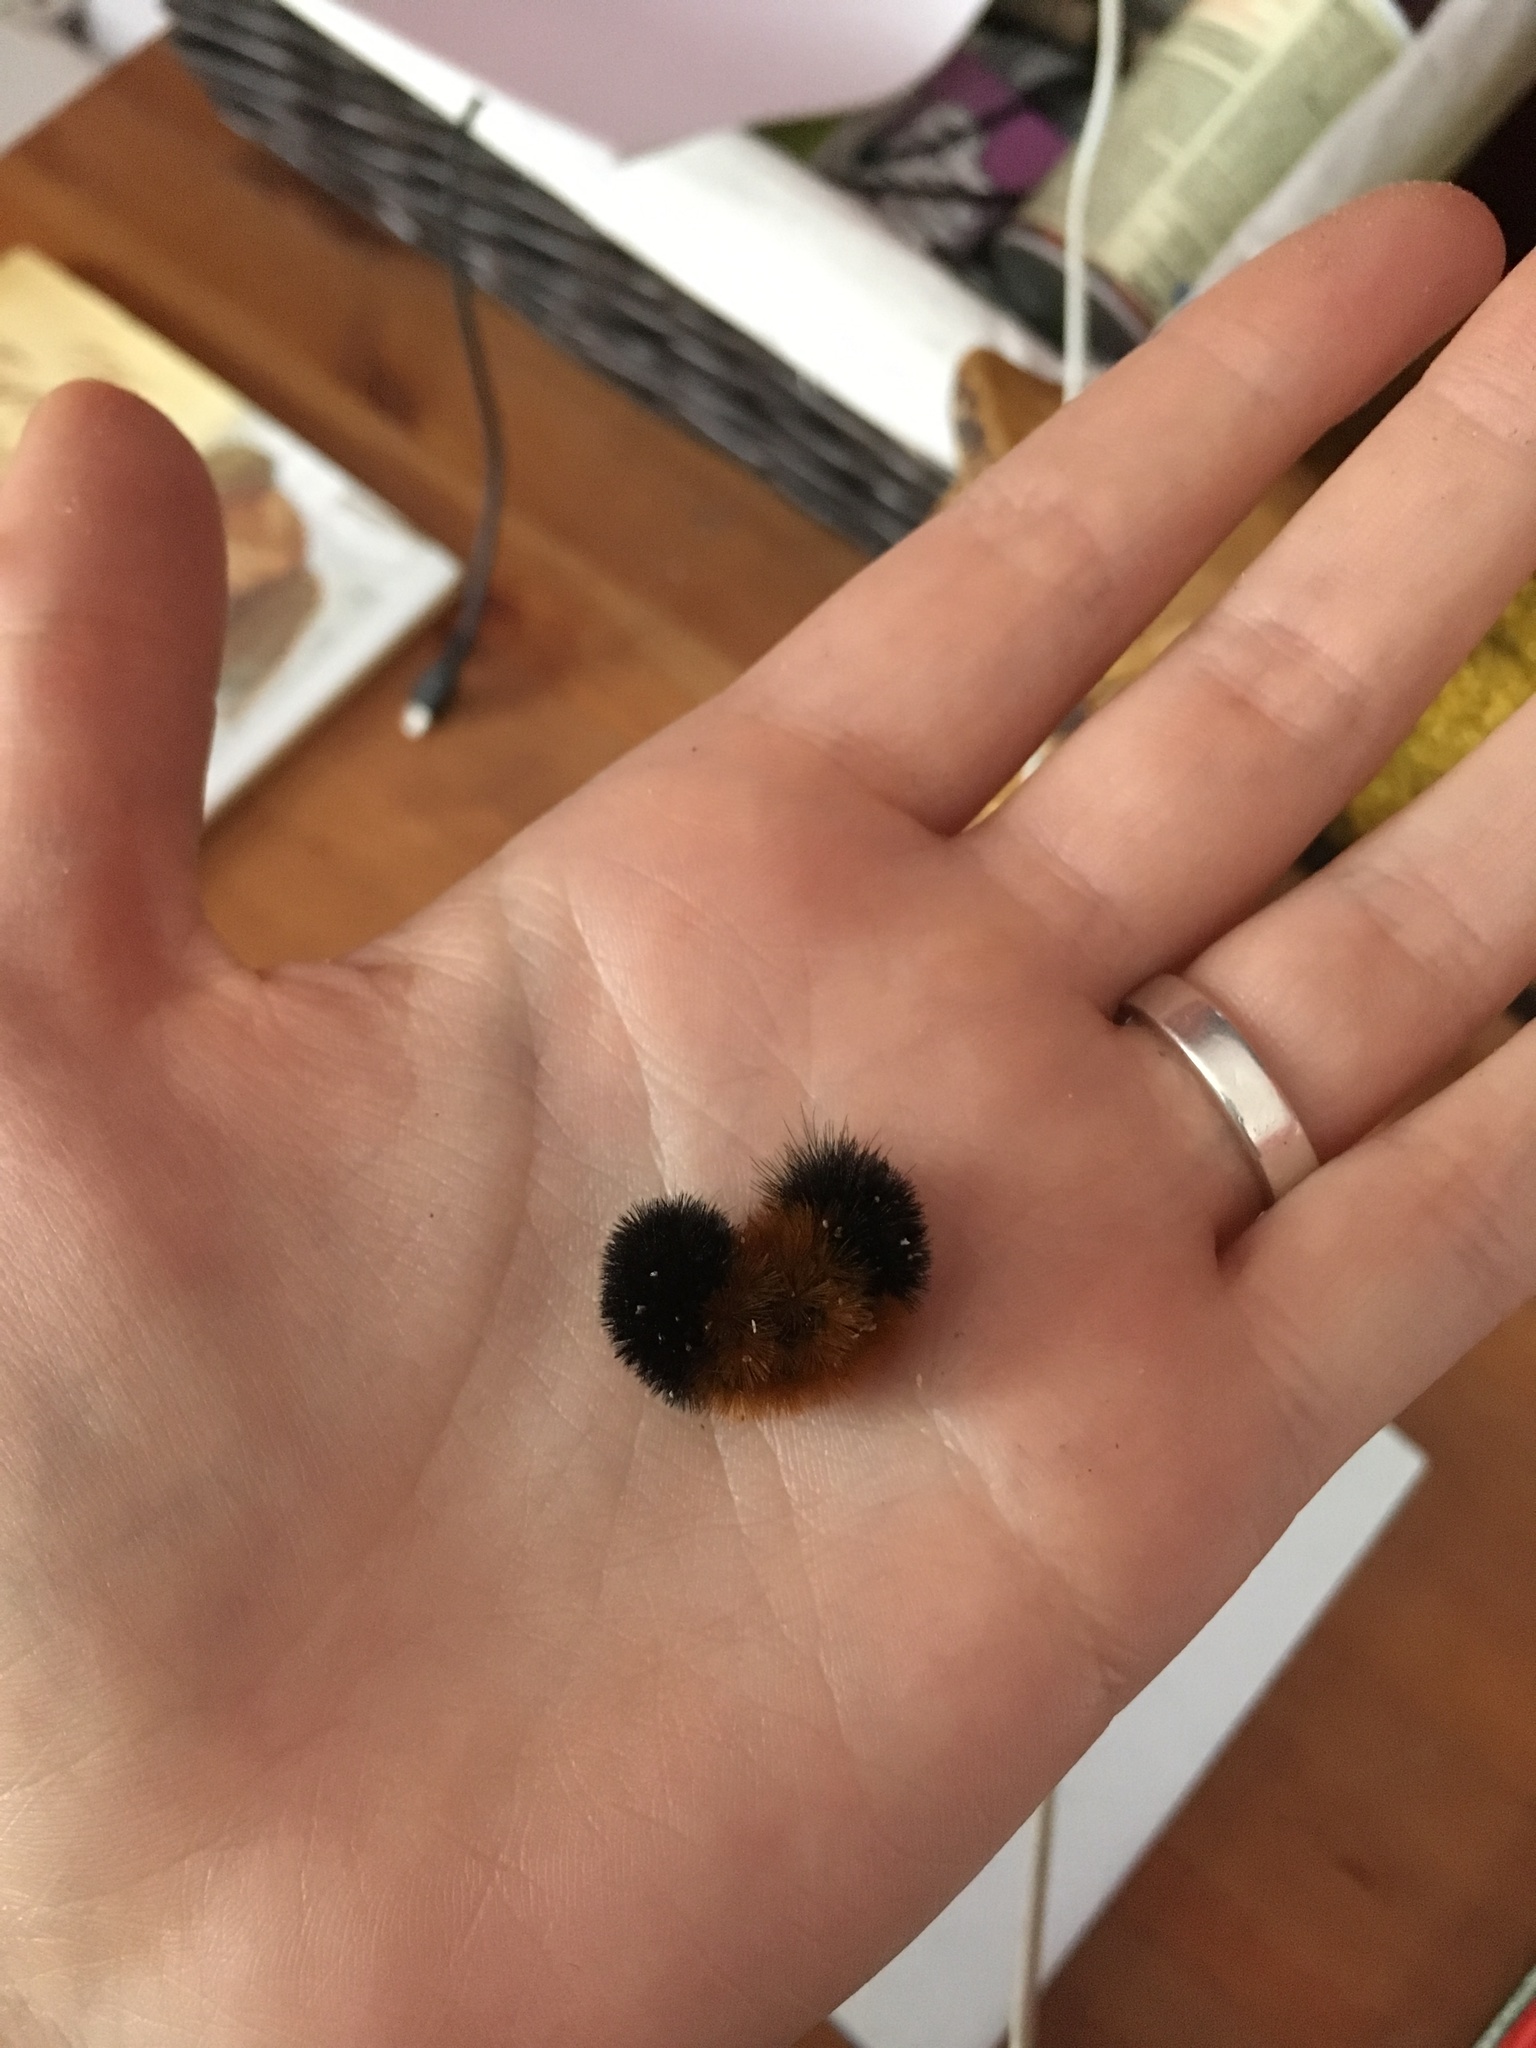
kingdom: Animalia
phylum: Arthropoda
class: Insecta
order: Lepidoptera
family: Erebidae
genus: Pyrrharctia
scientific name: Pyrrharctia isabella
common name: Isabella tiger moth
